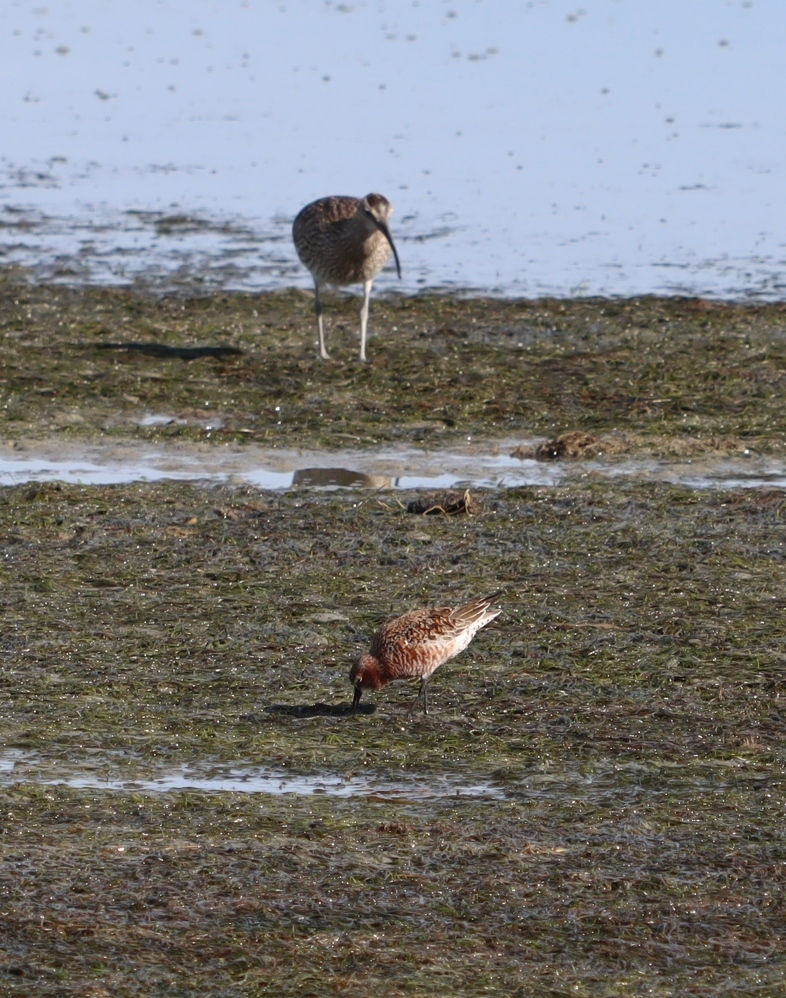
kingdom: Animalia
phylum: Chordata
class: Aves
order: Charadriiformes
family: Scolopacidae
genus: Numenius
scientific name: Numenius phaeopus
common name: Whimbrel
